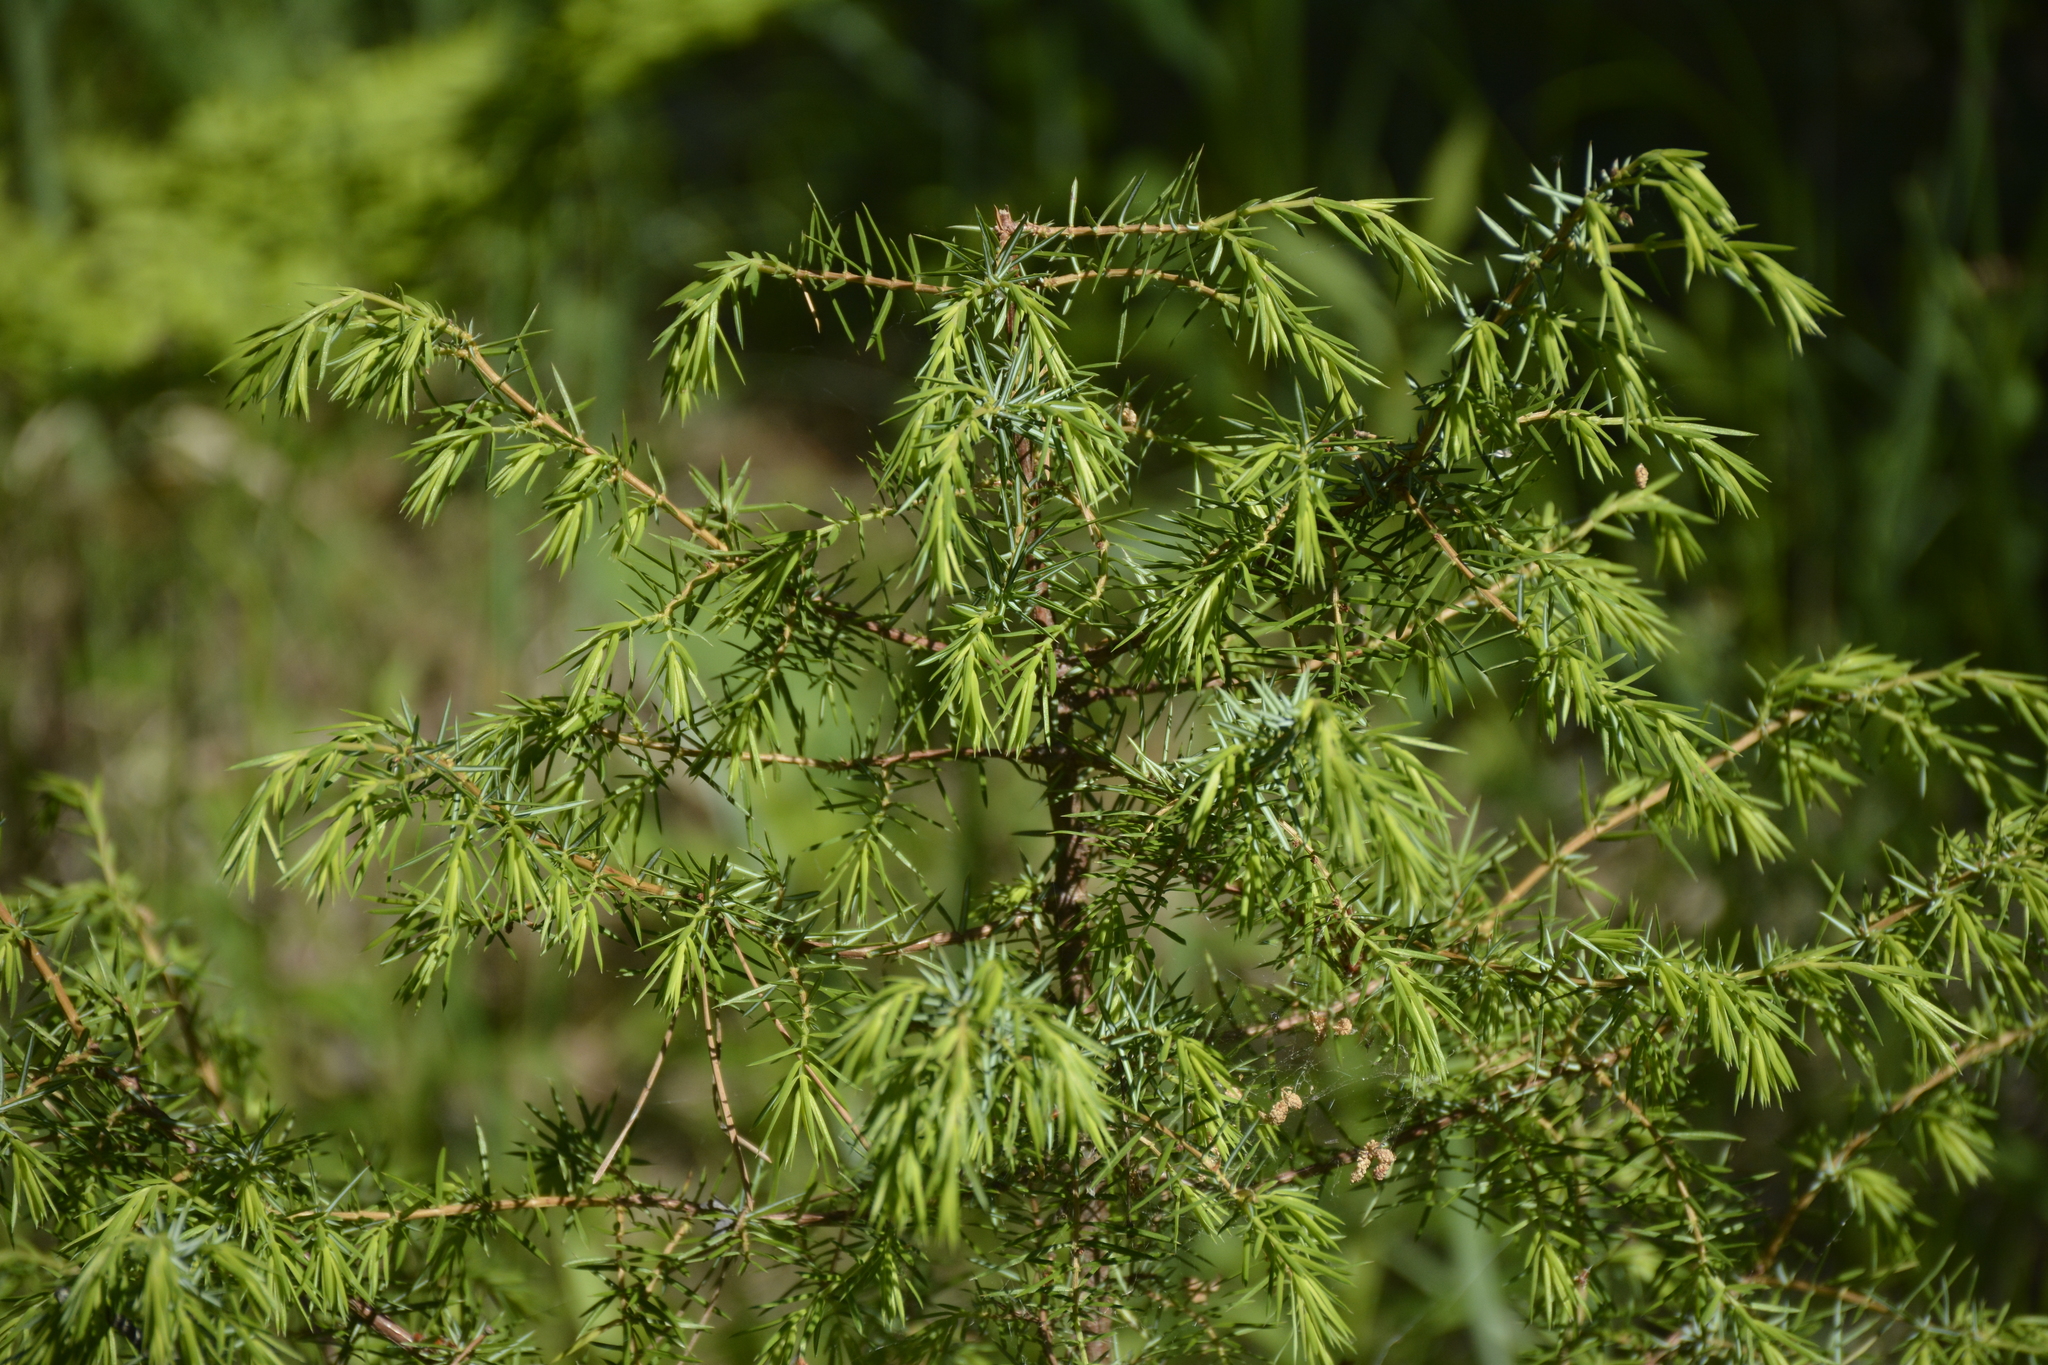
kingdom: Plantae
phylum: Tracheophyta
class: Pinopsida
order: Pinales
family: Cupressaceae
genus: Juniperus
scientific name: Juniperus communis
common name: Common juniper
